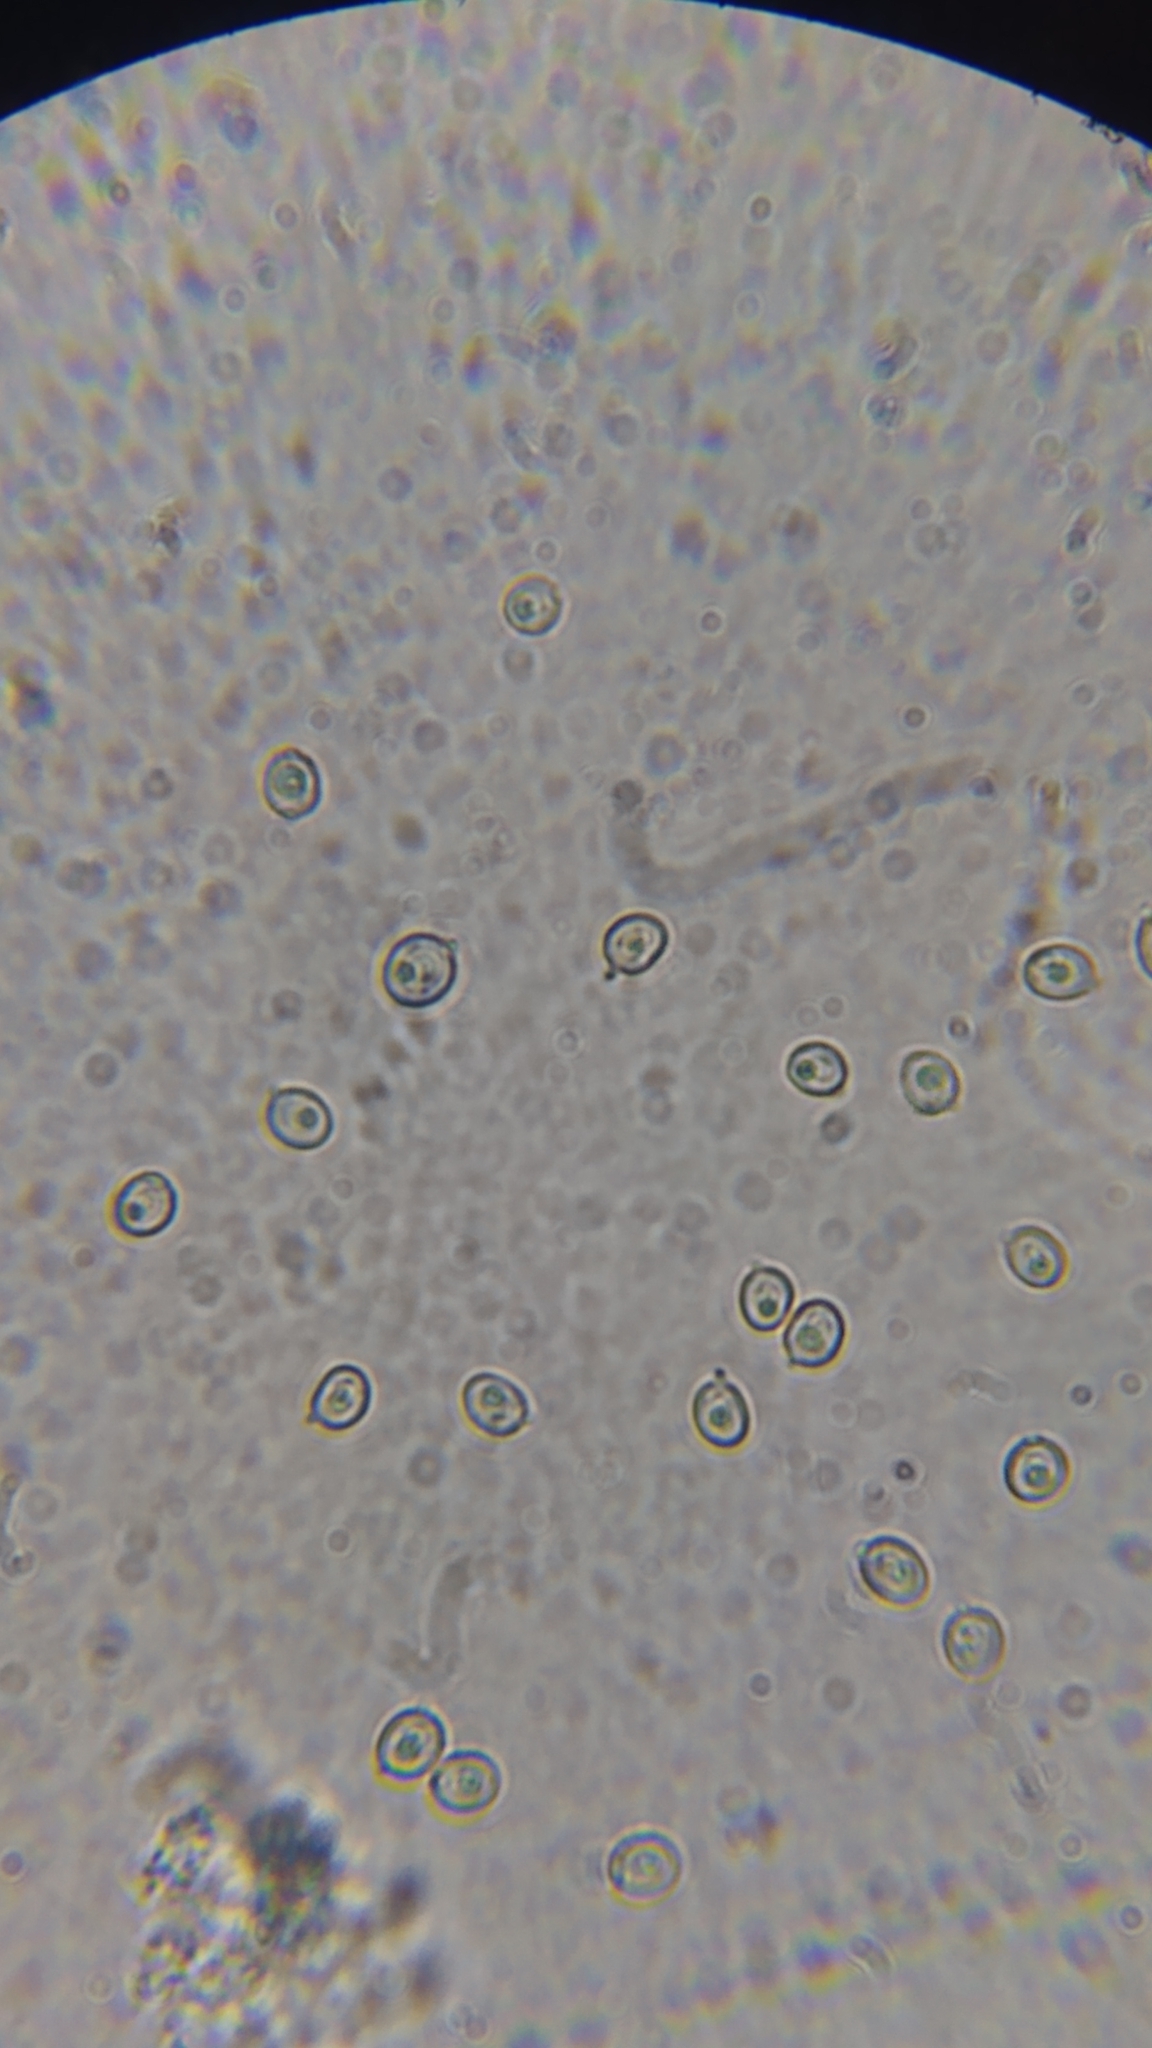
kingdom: Fungi
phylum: Basidiomycota
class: Agaricomycetes
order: Hymenochaetales
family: Hymenochaetaceae
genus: Coltricia
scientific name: Coltricia cinnamomea
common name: Shiny cinnamon polypore
